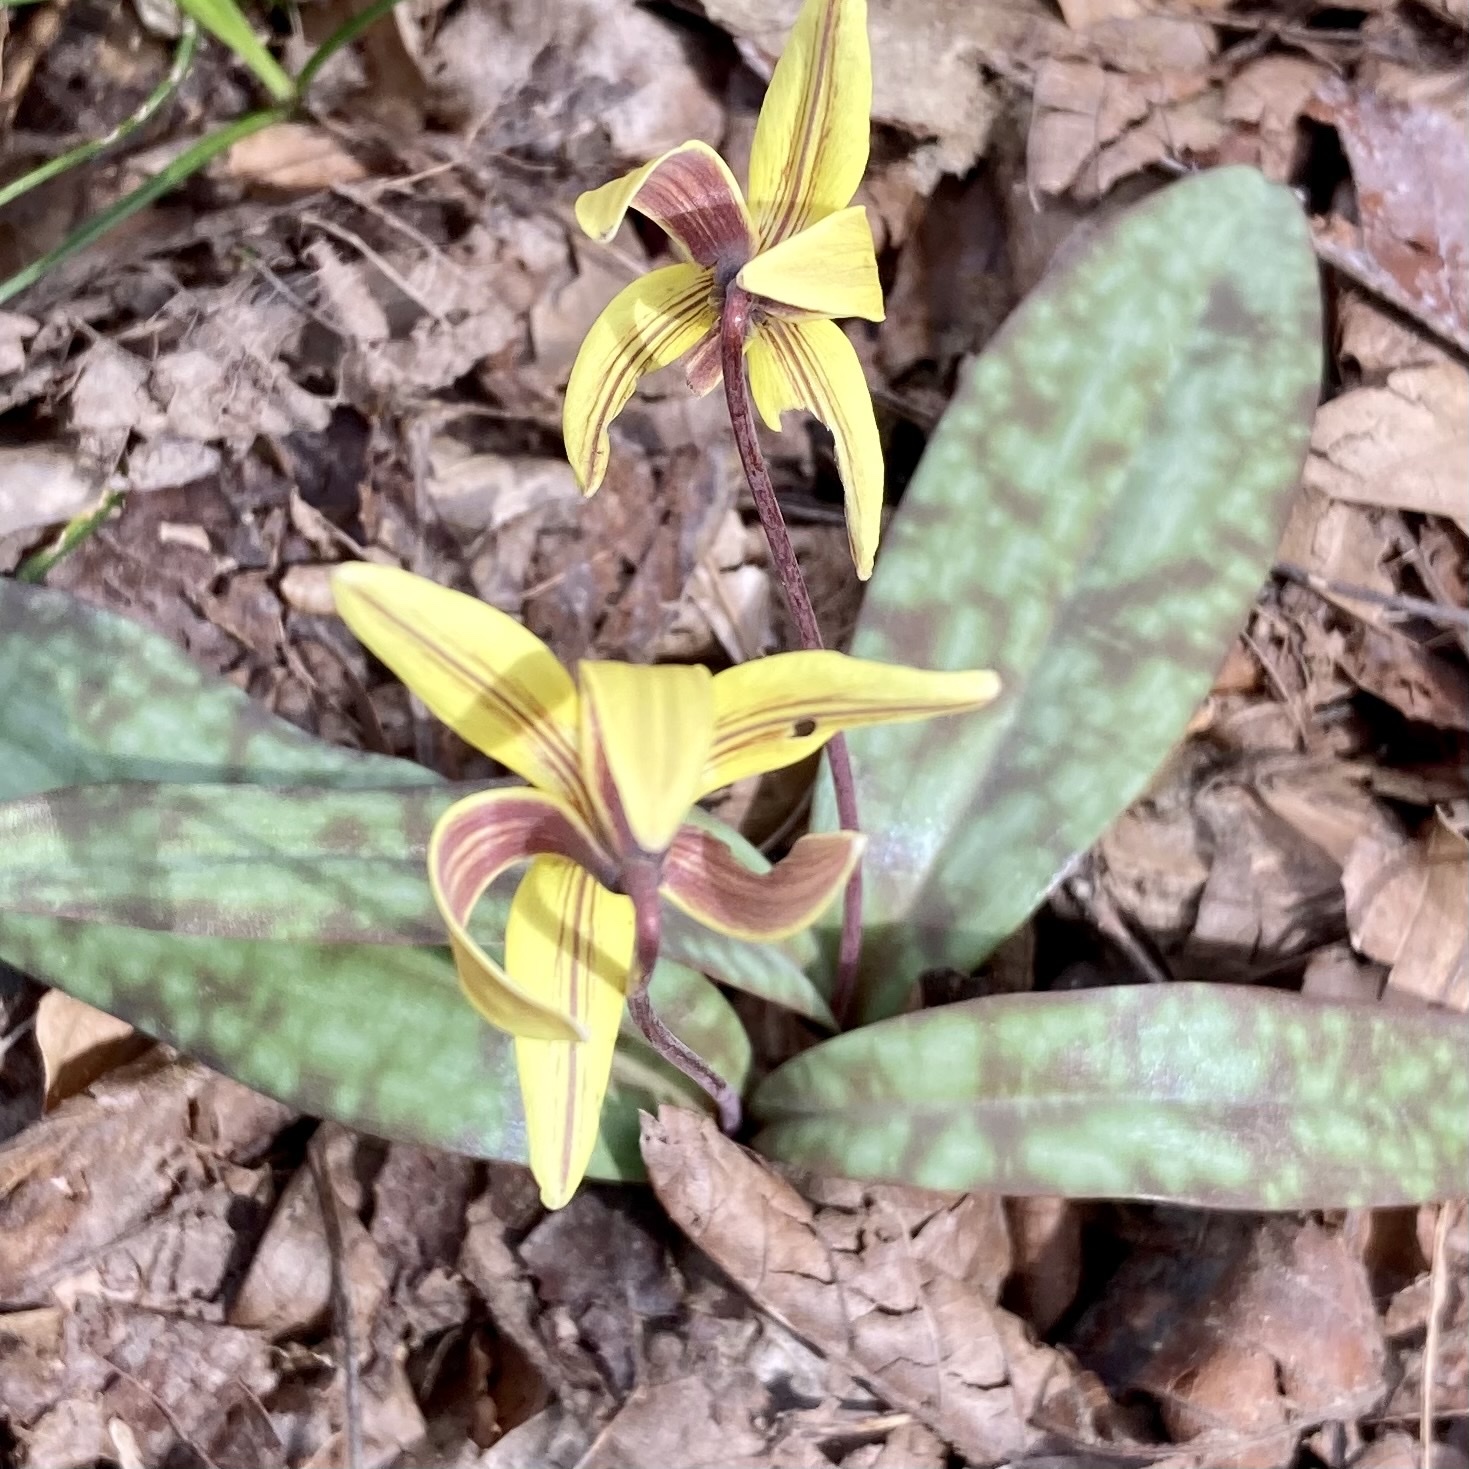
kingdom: Plantae
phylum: Tracheophyta
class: Liliopsida
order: Liliales
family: Liliaceae
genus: Erythronium
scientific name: Erythronium umbilicatum
